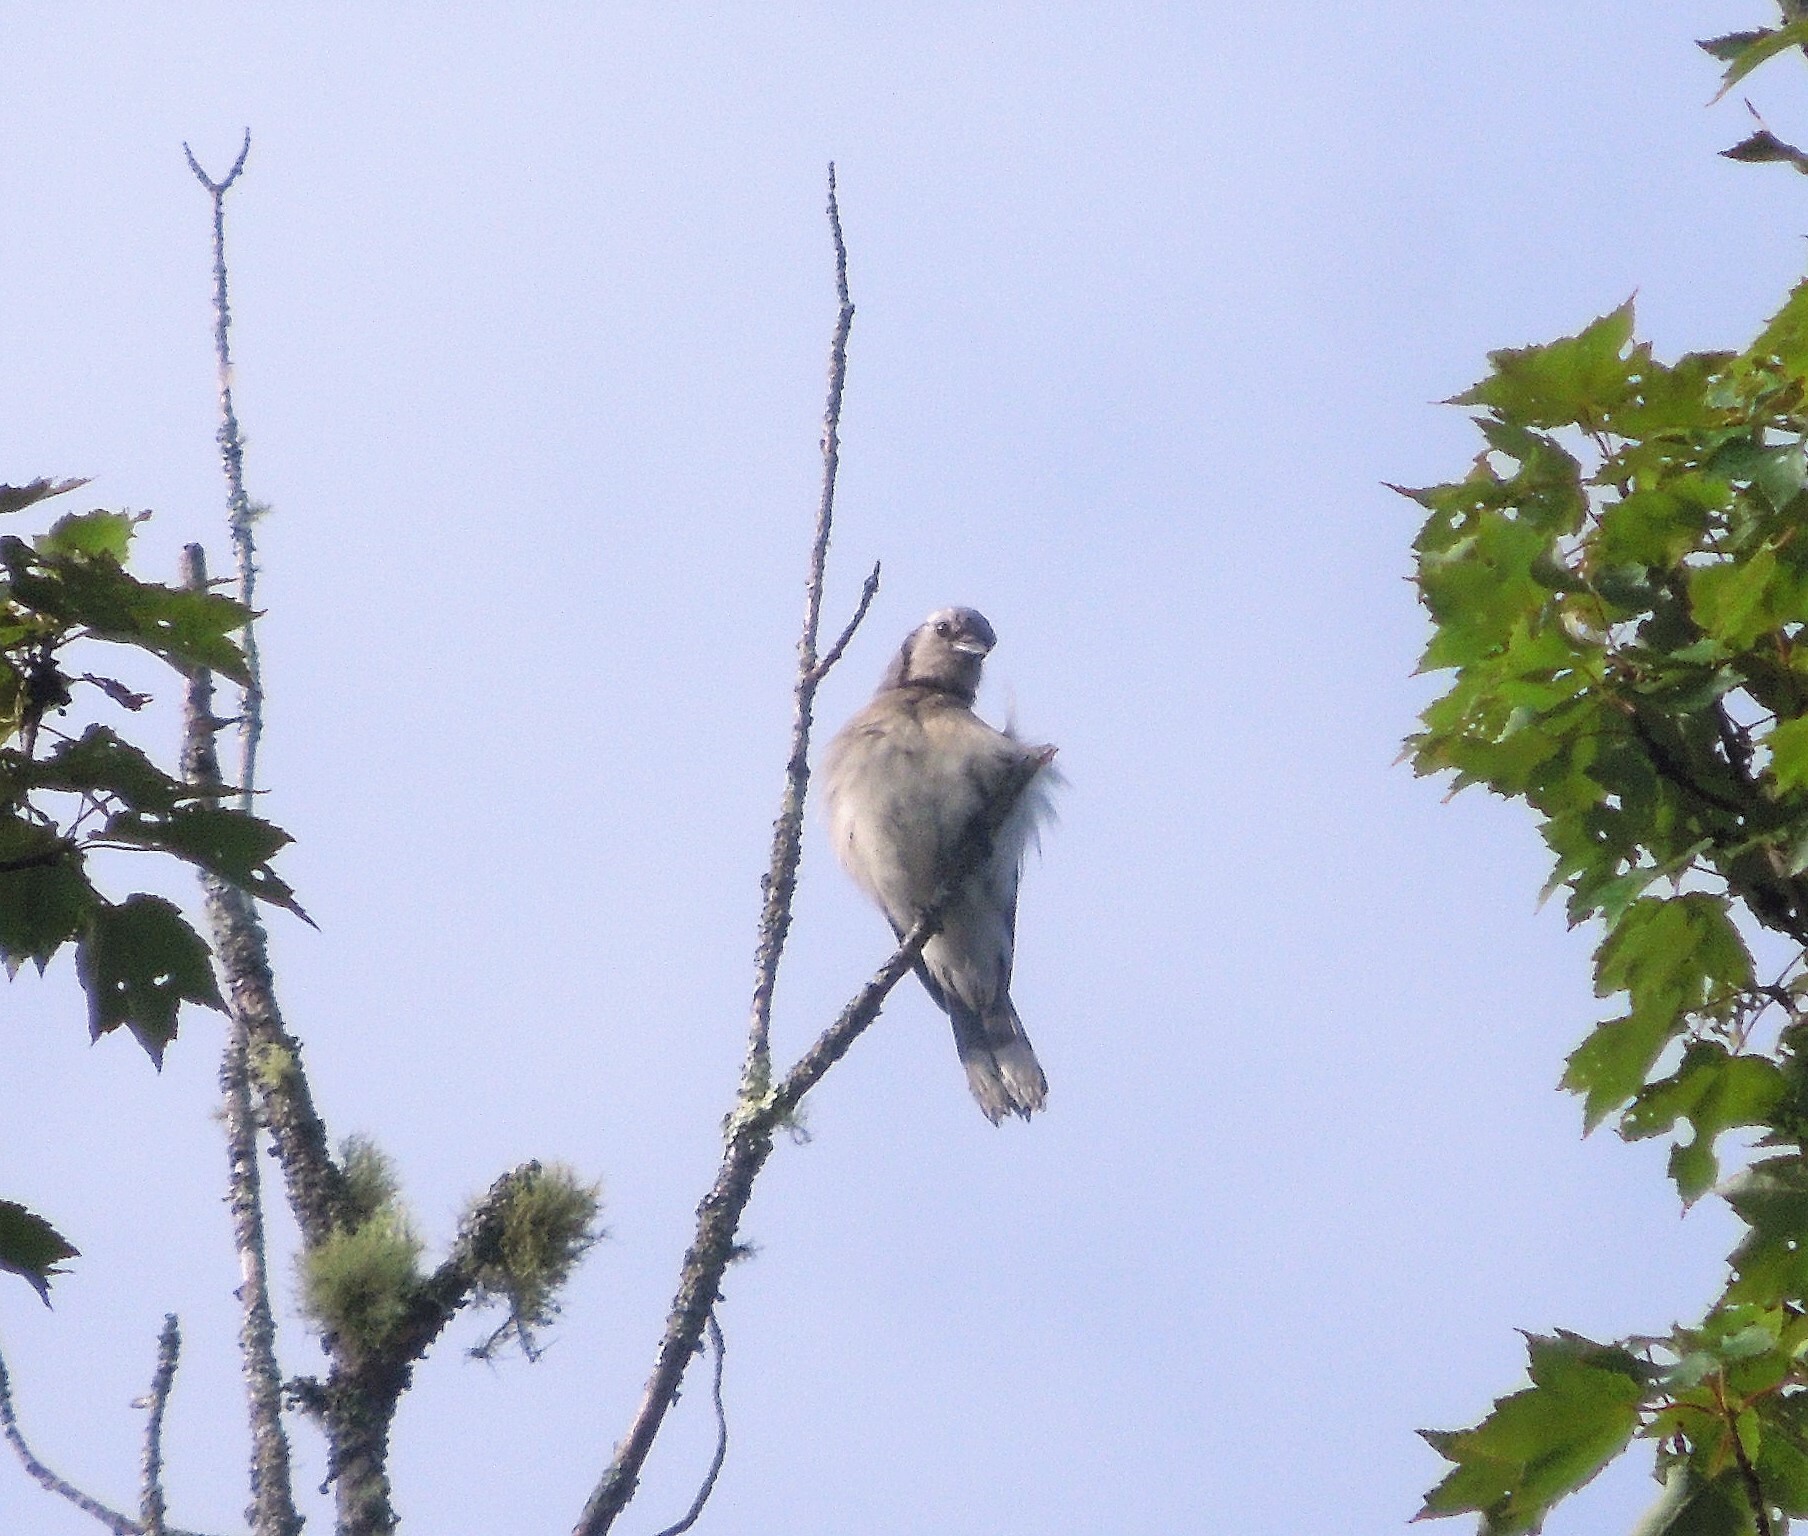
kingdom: Animalia
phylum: Chordata
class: Aves
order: Passeriformes
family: Corvidae
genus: Cyanocitta
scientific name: Cyanocitta cristata
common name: Blue jay
